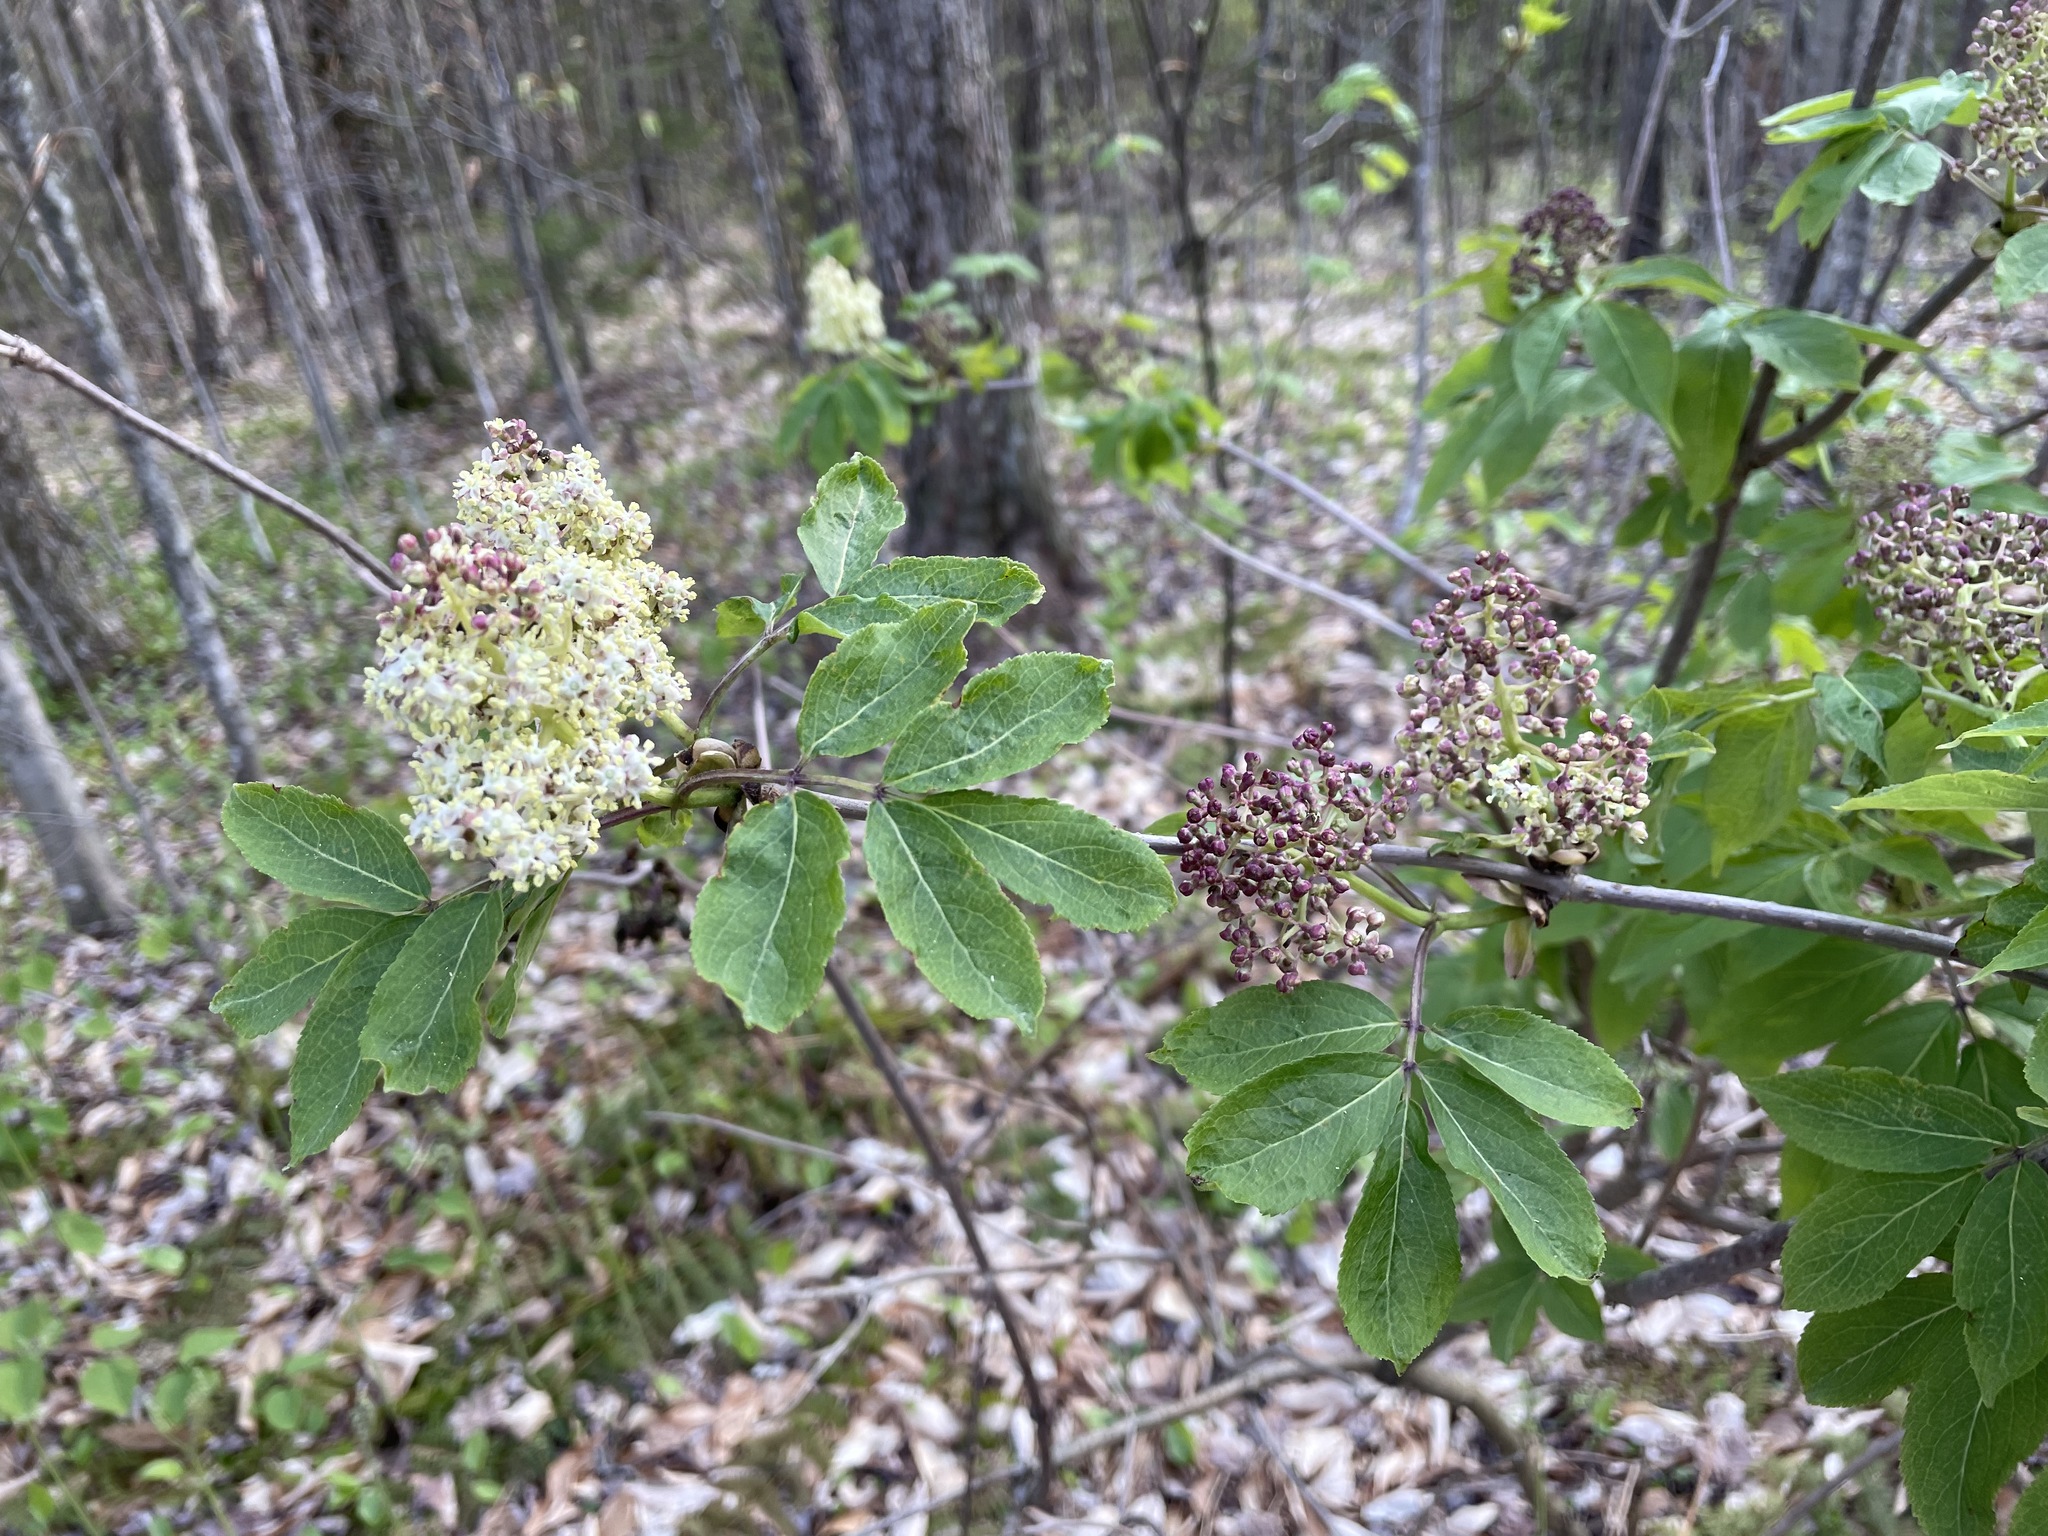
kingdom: Plantae
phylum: Tracheophyta
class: Magnoliopsida
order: Dipsacales
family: Viburnaceae
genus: Sambucus
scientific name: Sambucus racemosa
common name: Red-berried elder
